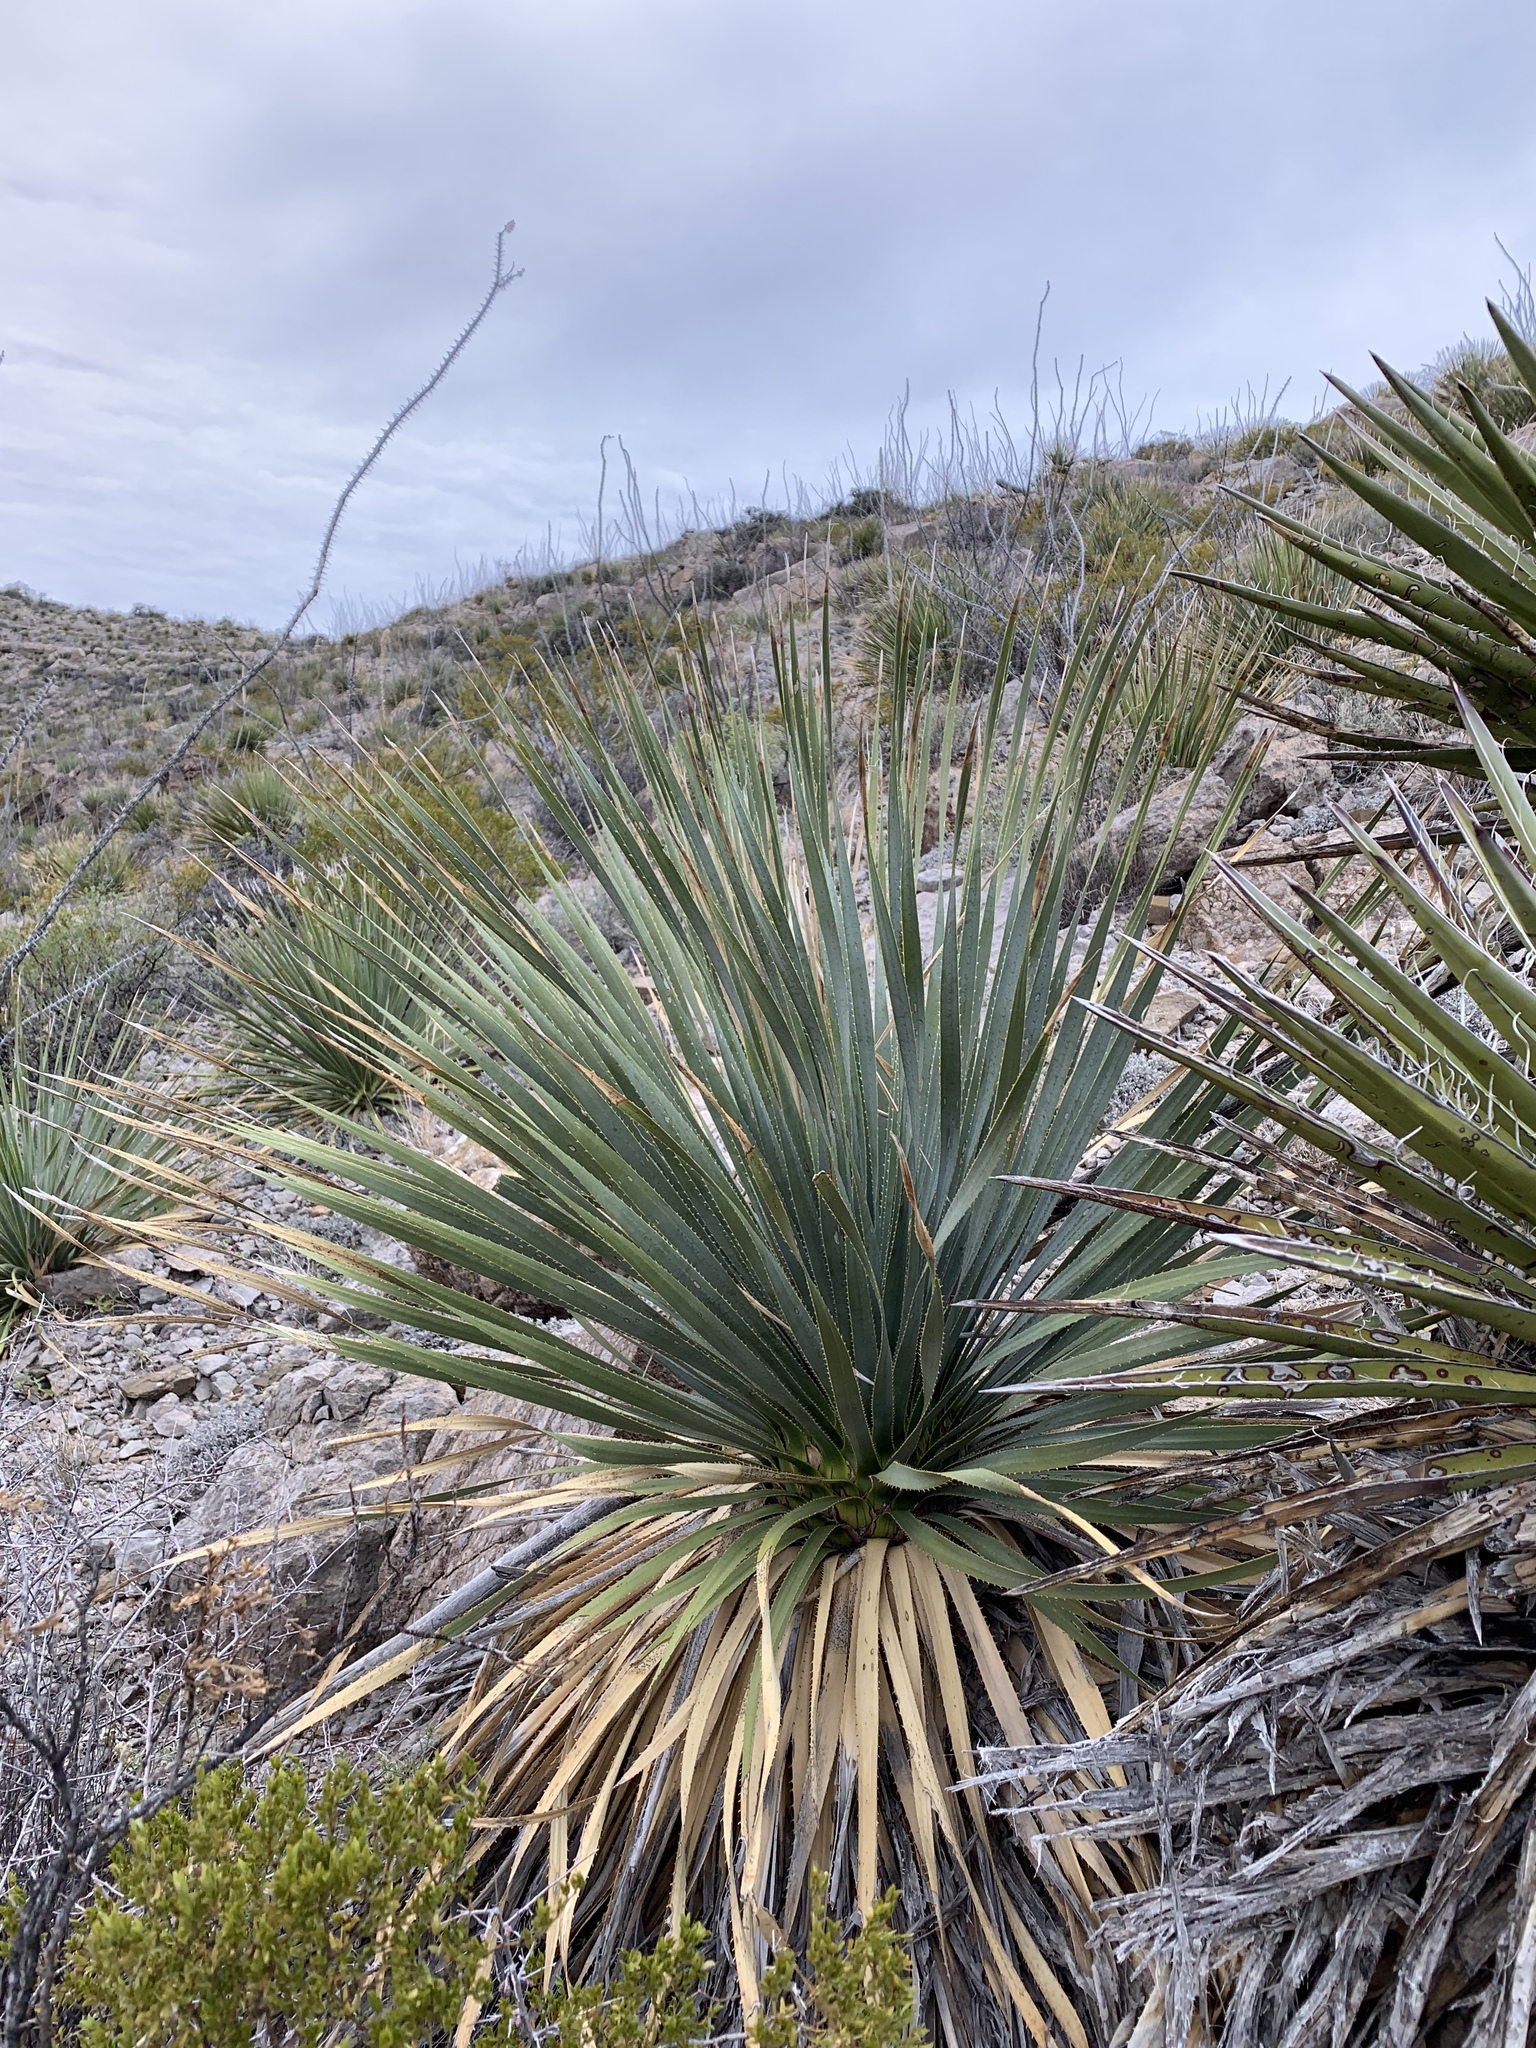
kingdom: Plantae
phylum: Tracheophyta
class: Liliopsida
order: Asparagales
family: Asparagaceae
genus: Dasylirion
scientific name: Dasylirion wheeleri
